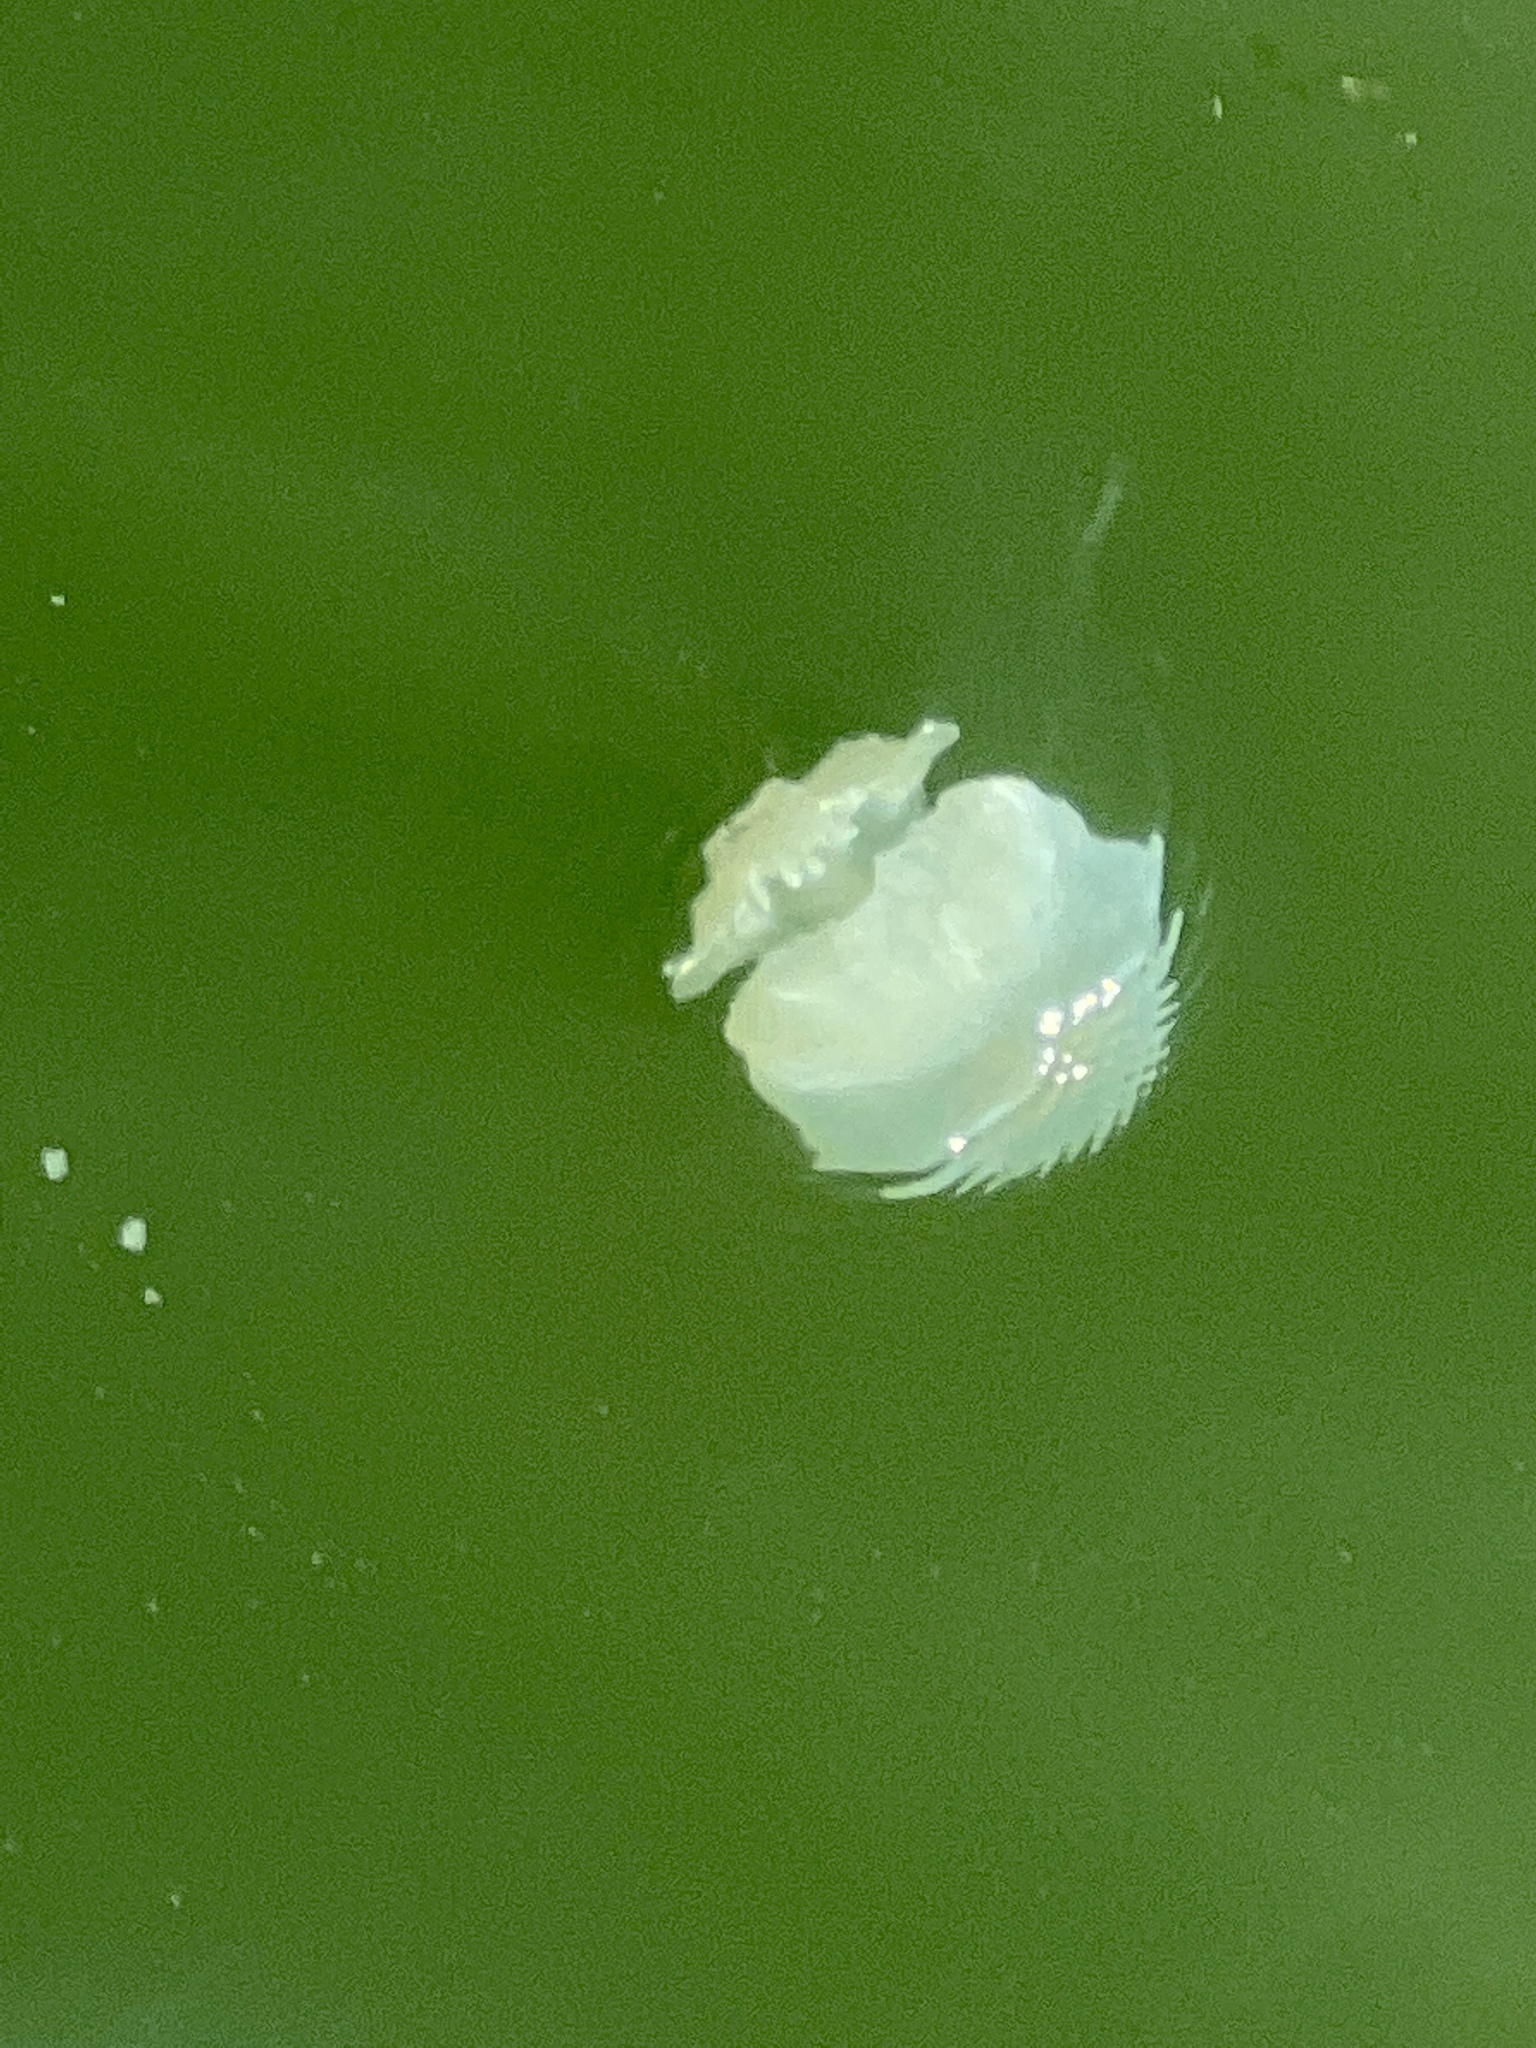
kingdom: Animalia
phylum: Cnidaria
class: Scyphozoa
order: Rhizostomeae
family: Stomolophidae
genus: Stomolophus
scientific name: Stomolophus meleagris
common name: Cabbagehead
